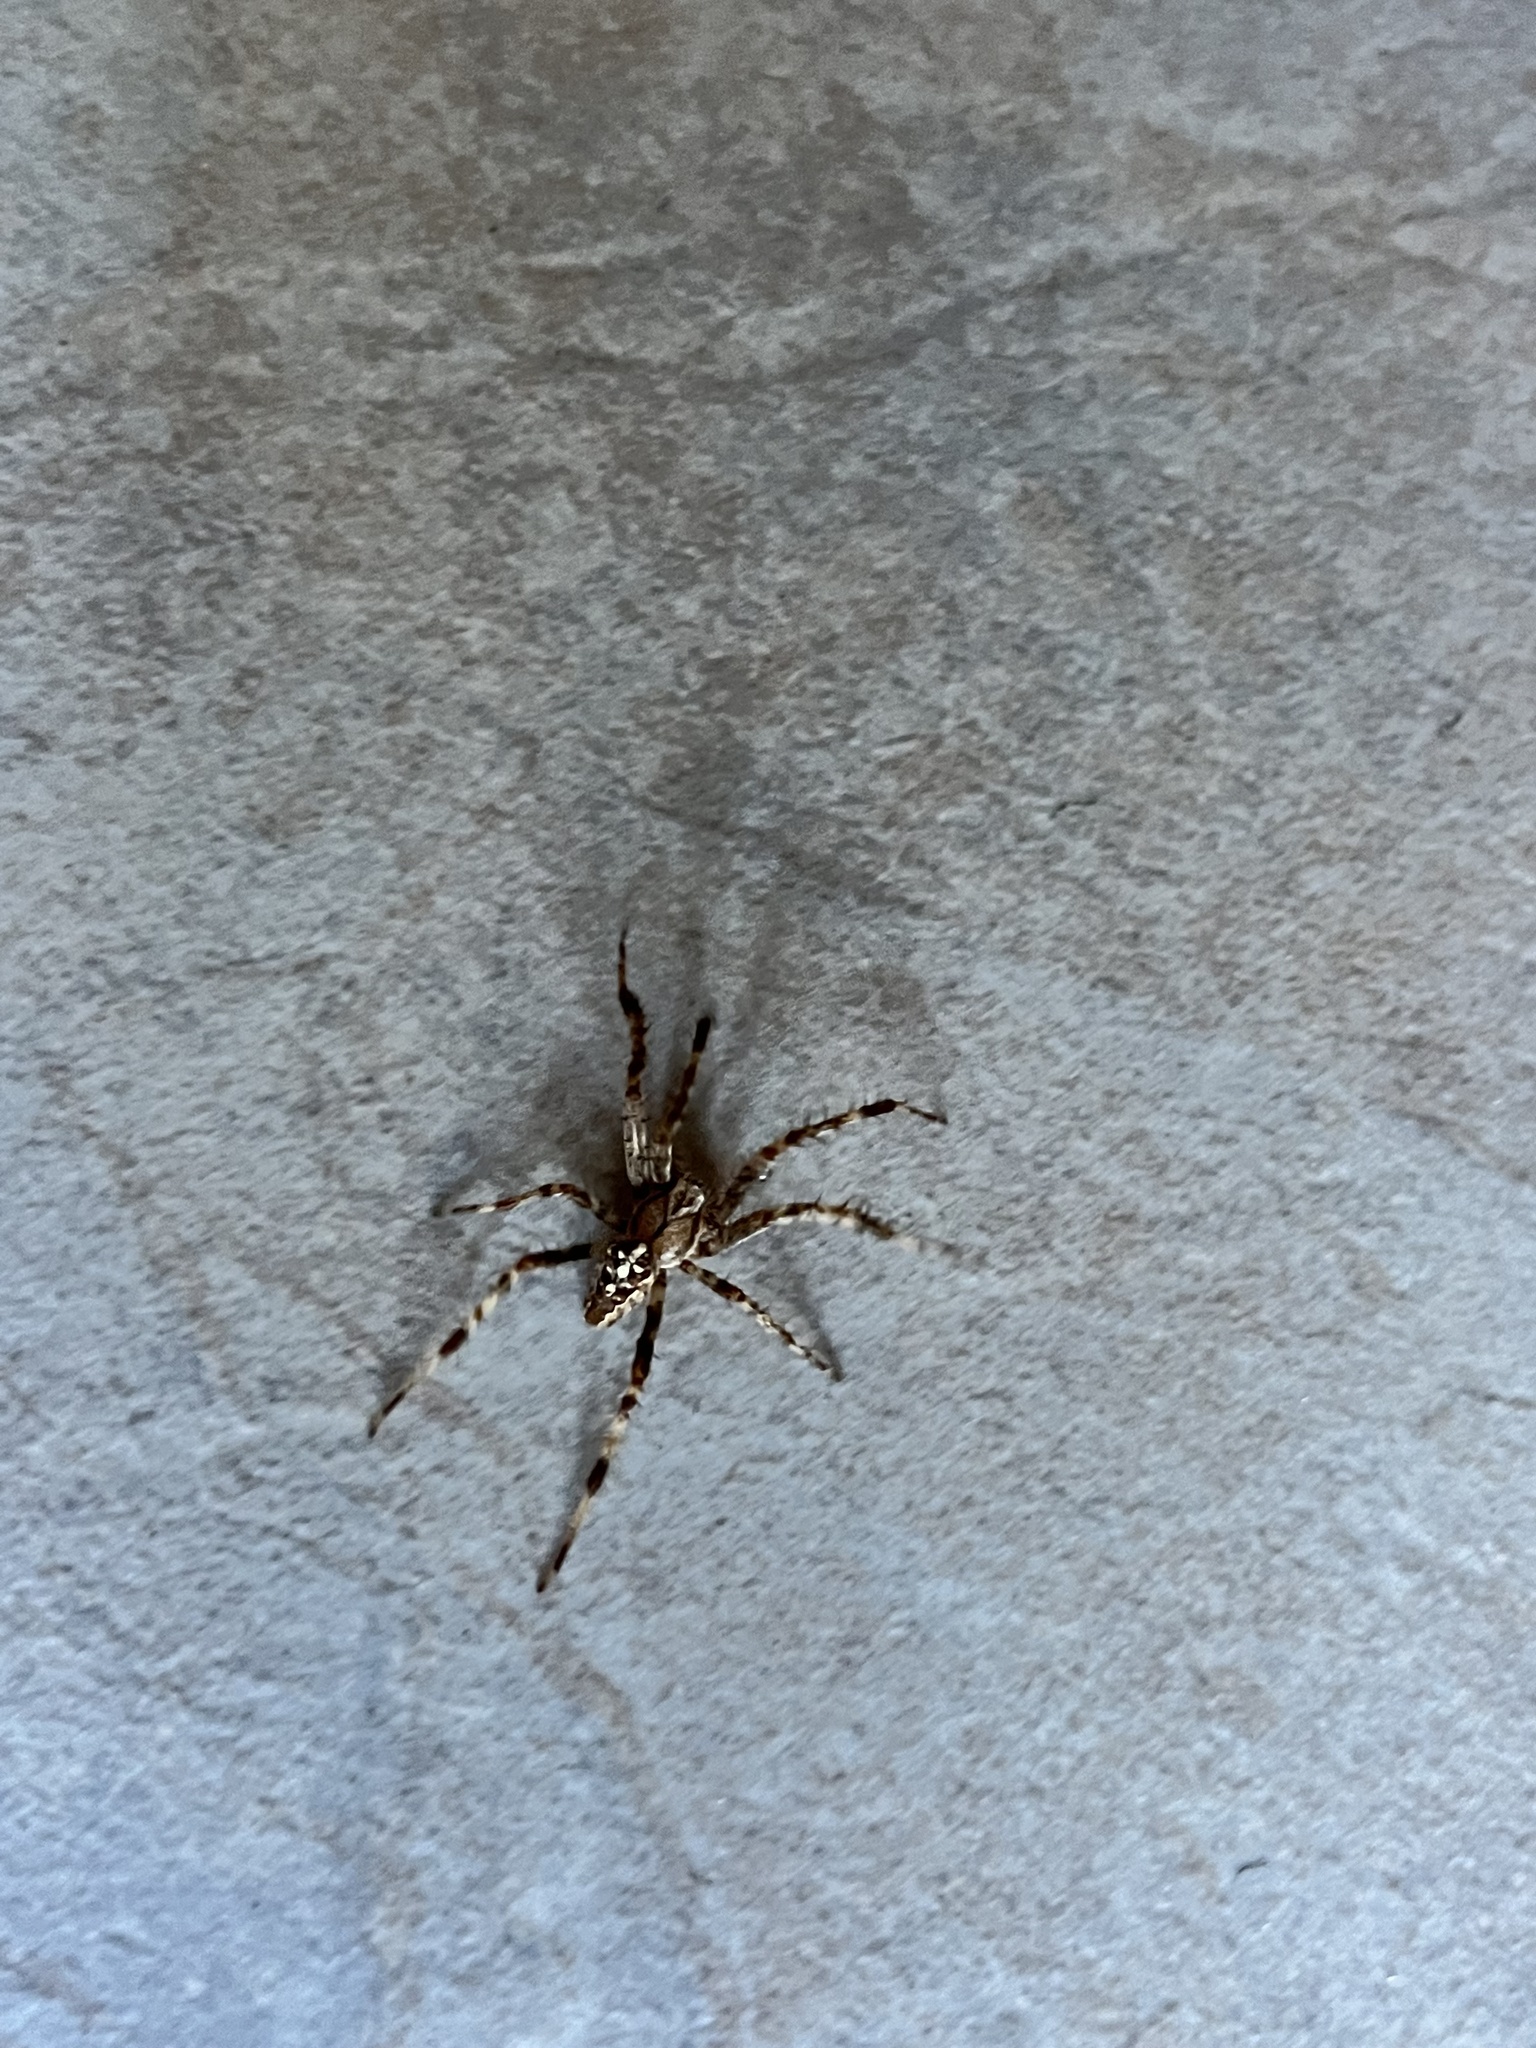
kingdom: Animalia
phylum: Arthropoda
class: Arachnida
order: Araneae
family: Araneidae
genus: Araneus
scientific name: Araneus diadematus
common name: Cross orbweaver
